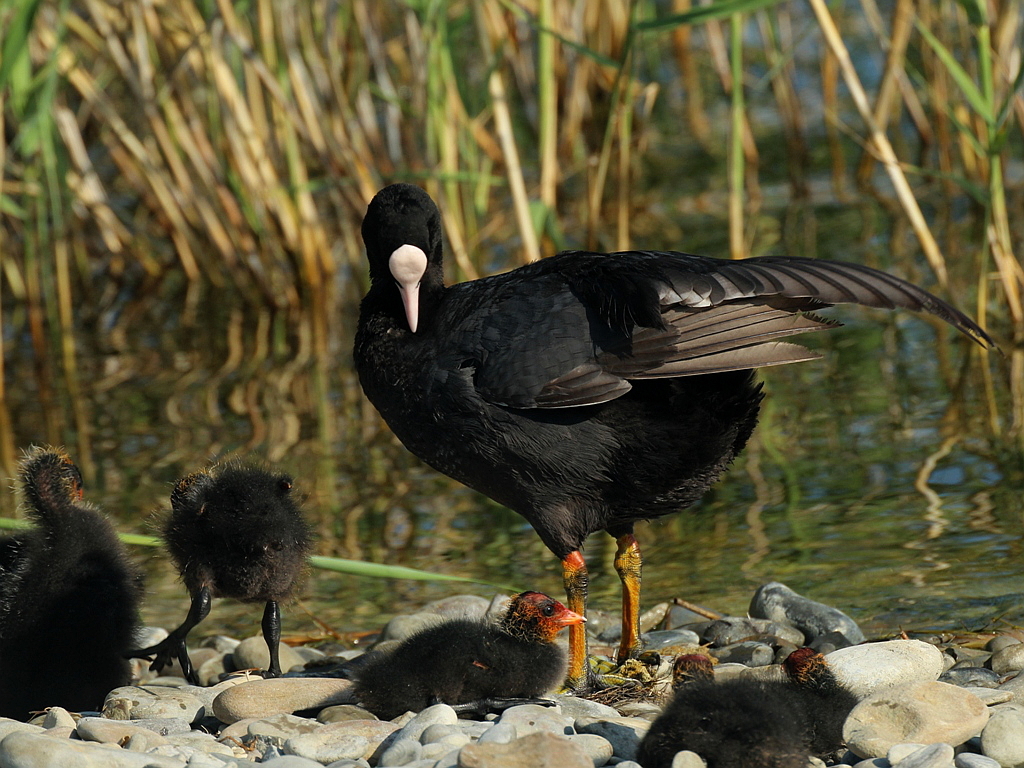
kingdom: Animalia
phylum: Chordata
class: Aves
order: Gruiformes
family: Rallidae
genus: Fulica
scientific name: Fulica atra
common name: Eurasian coot
